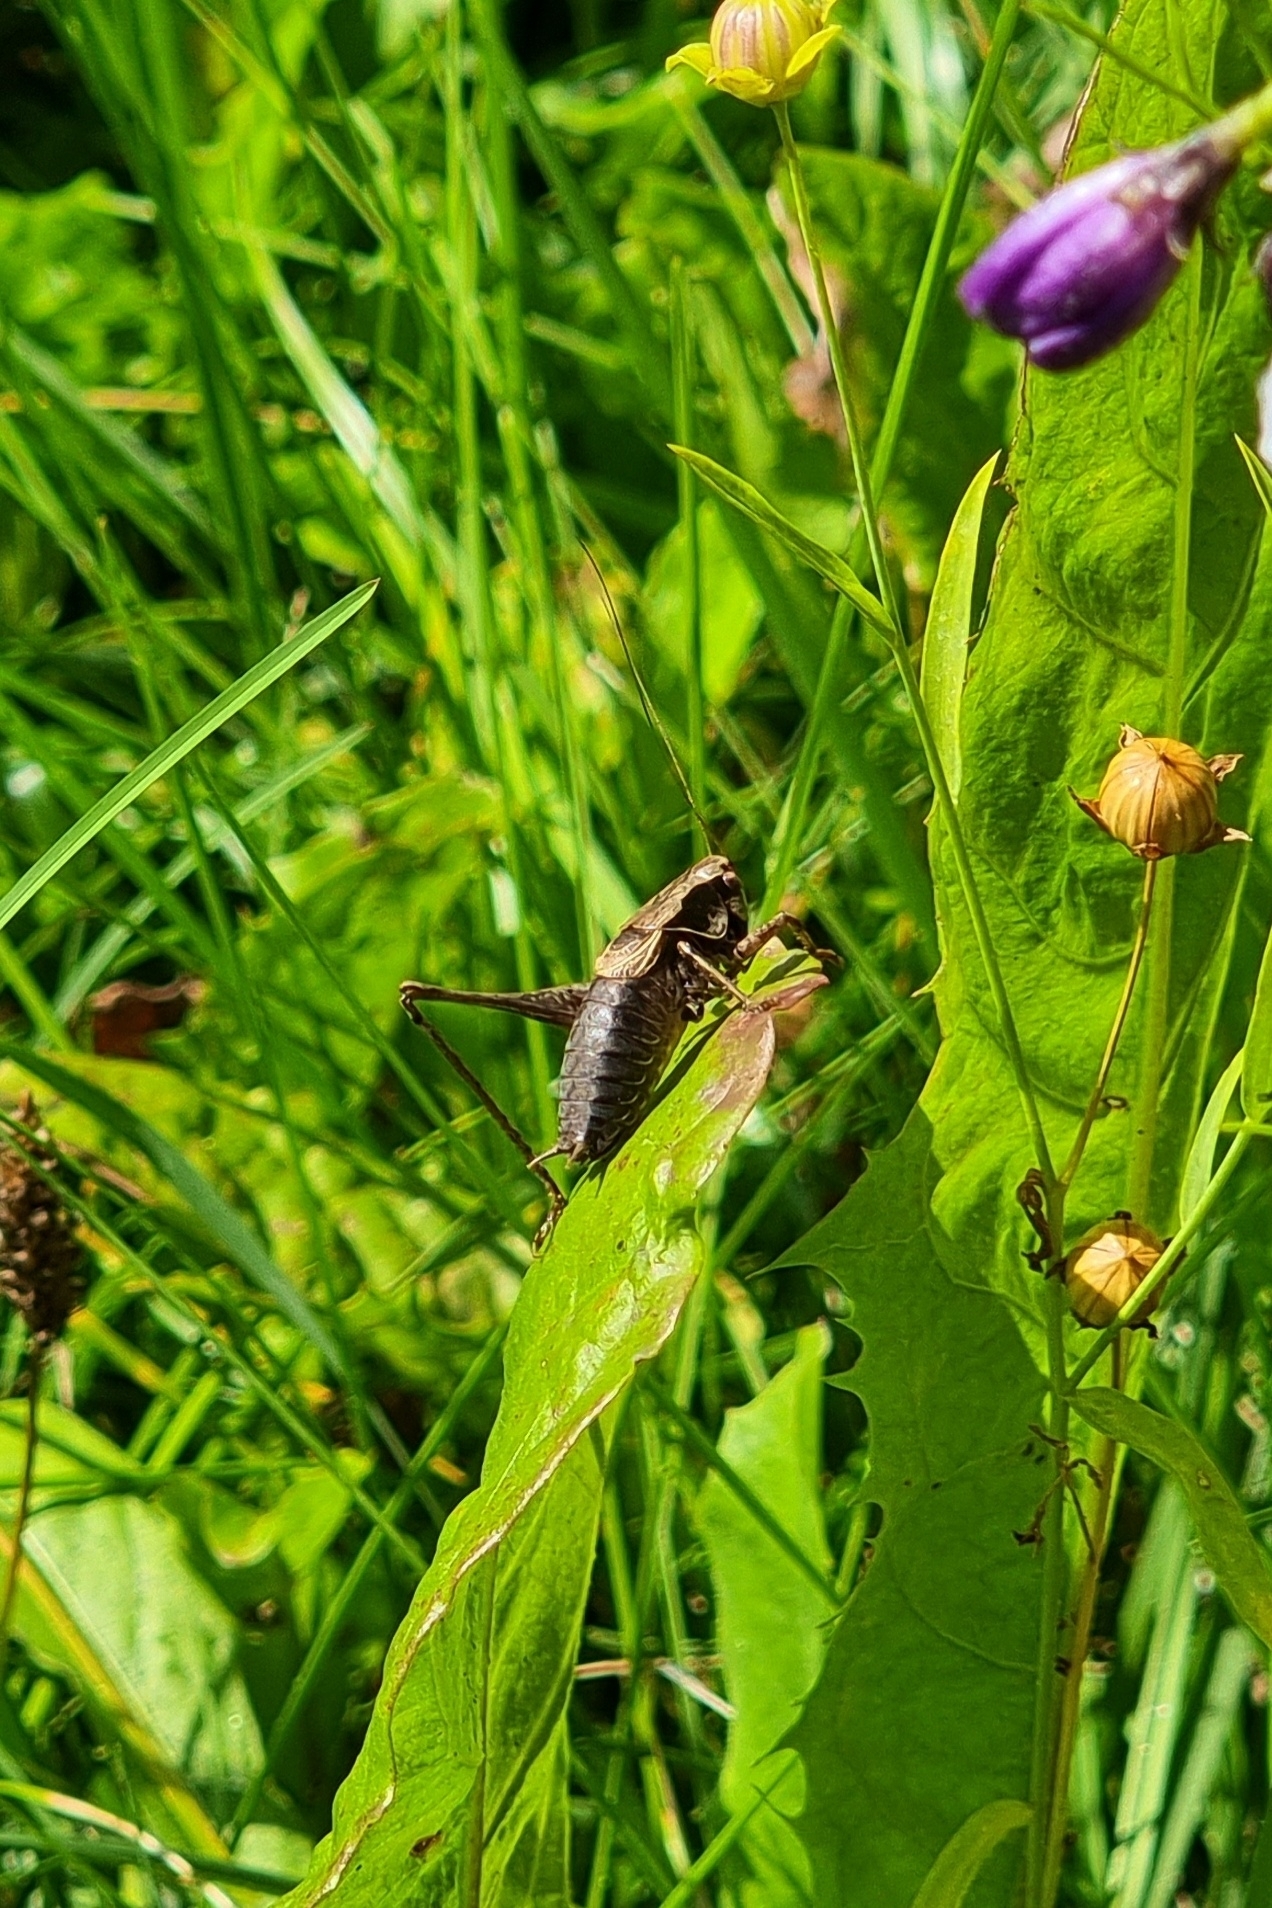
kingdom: Animalia
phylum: Arthropoda
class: Insecta
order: Orthoptera
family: Tettigoniidae
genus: Pholidoptera
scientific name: Pholidoptera griseoaptera
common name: Dark bush-cricket
